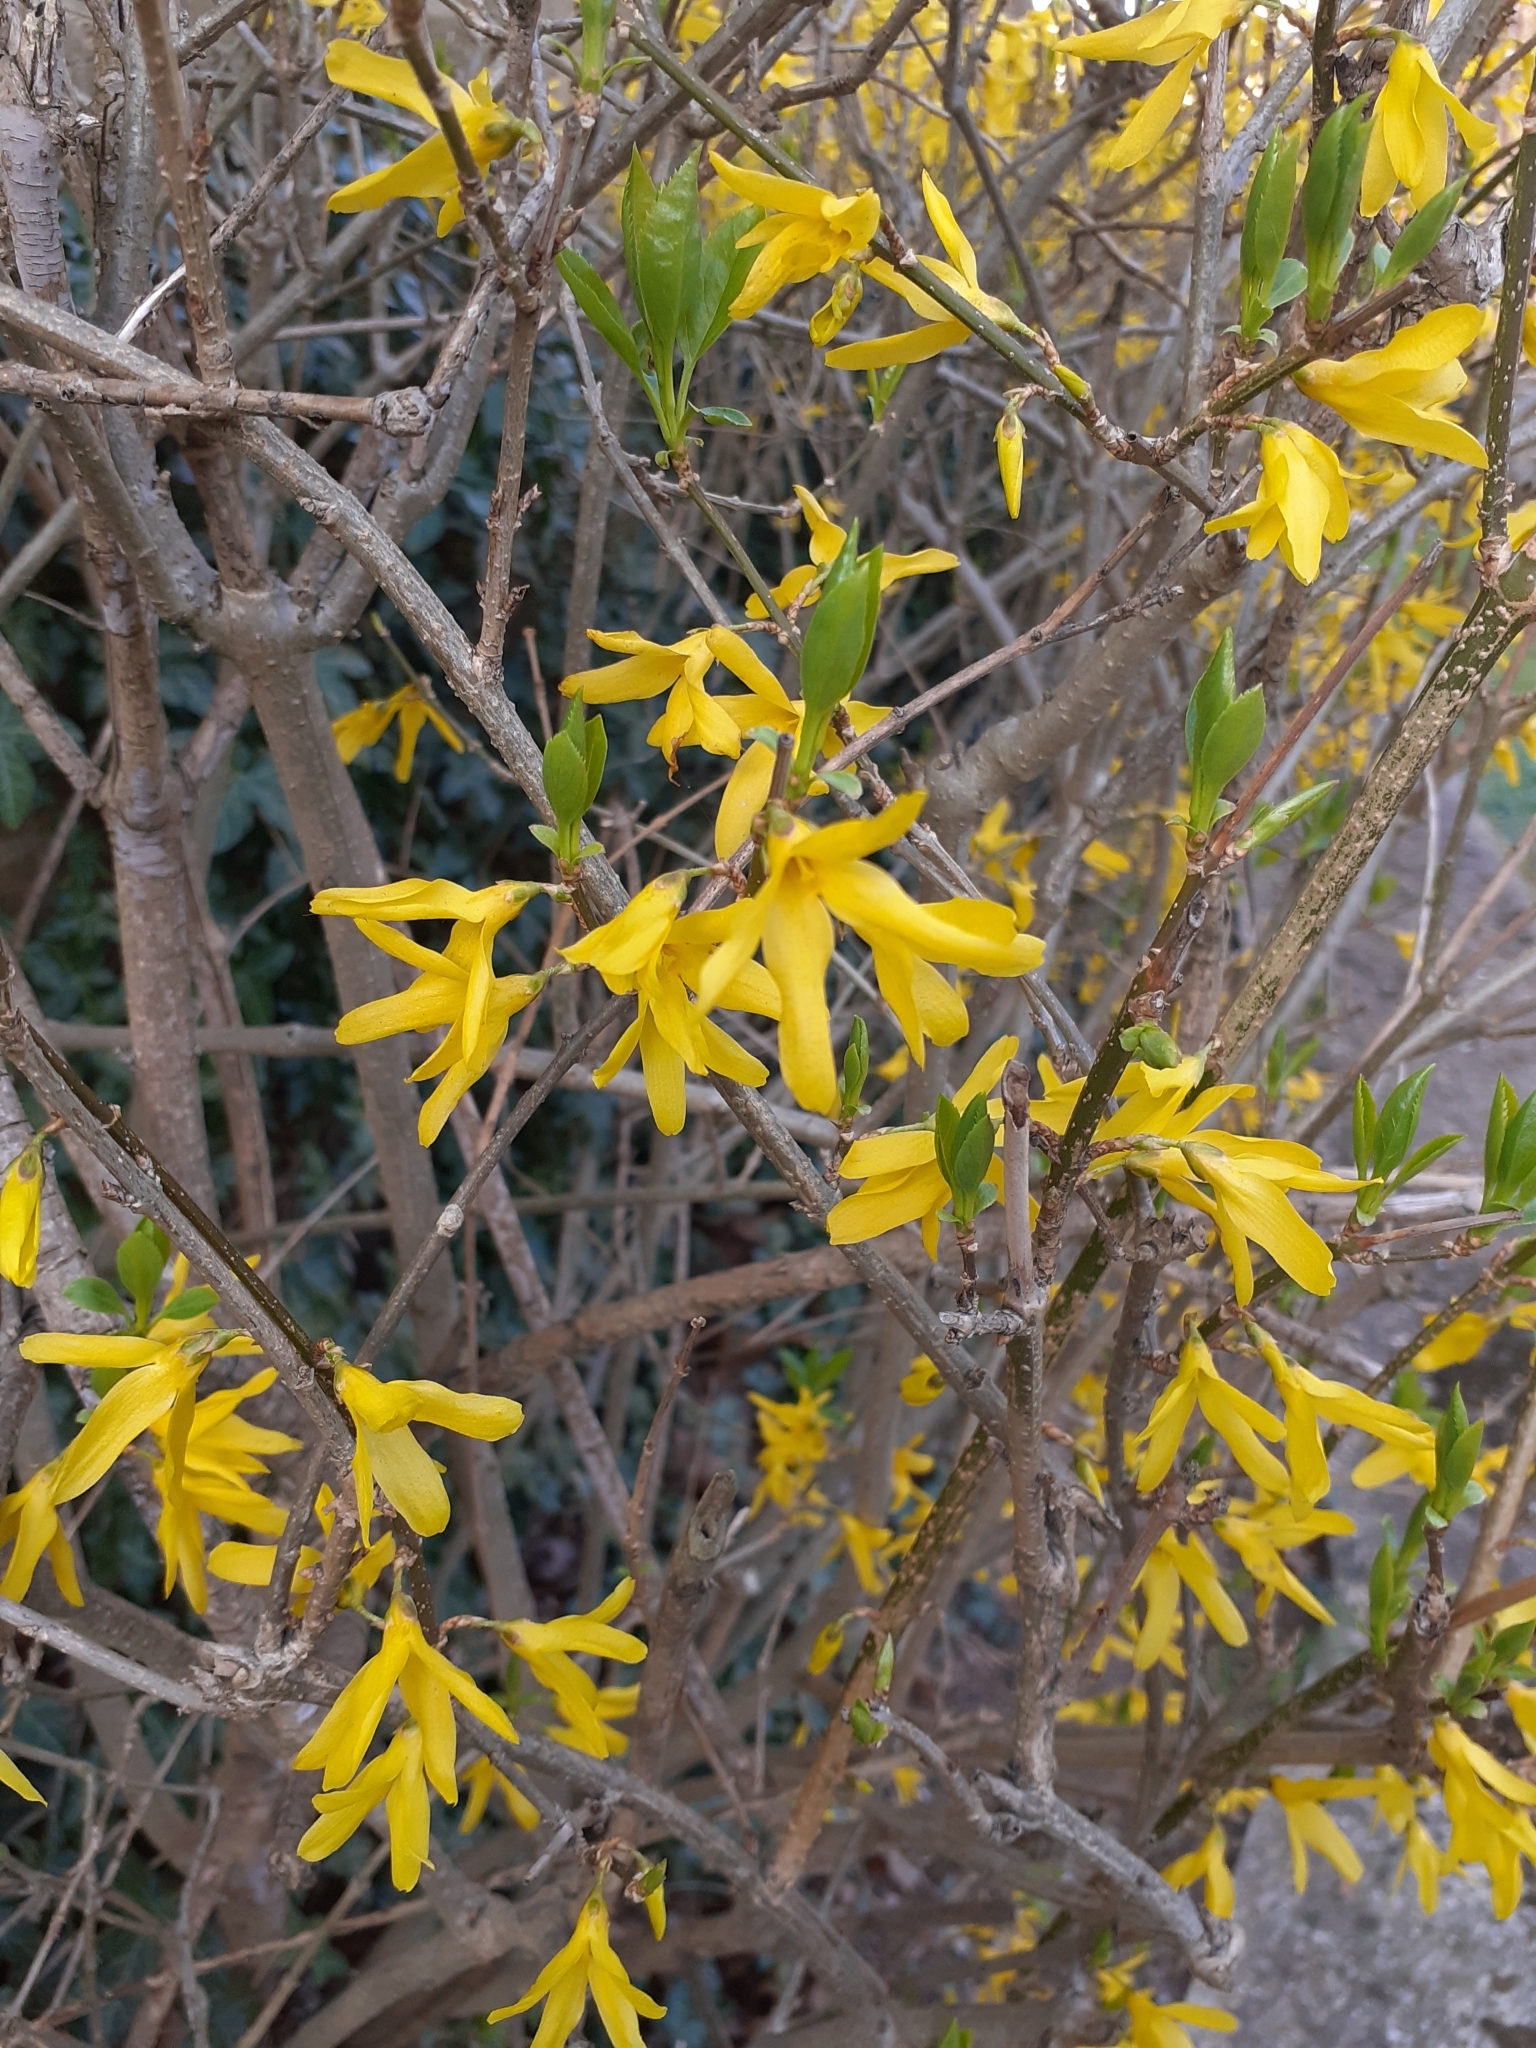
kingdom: Plantae
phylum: Tracheophyta
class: Magnoliopsida
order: Lamiales
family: Oleaceae
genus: Forsythia
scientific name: Forsythia intermedia
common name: Forsythia
